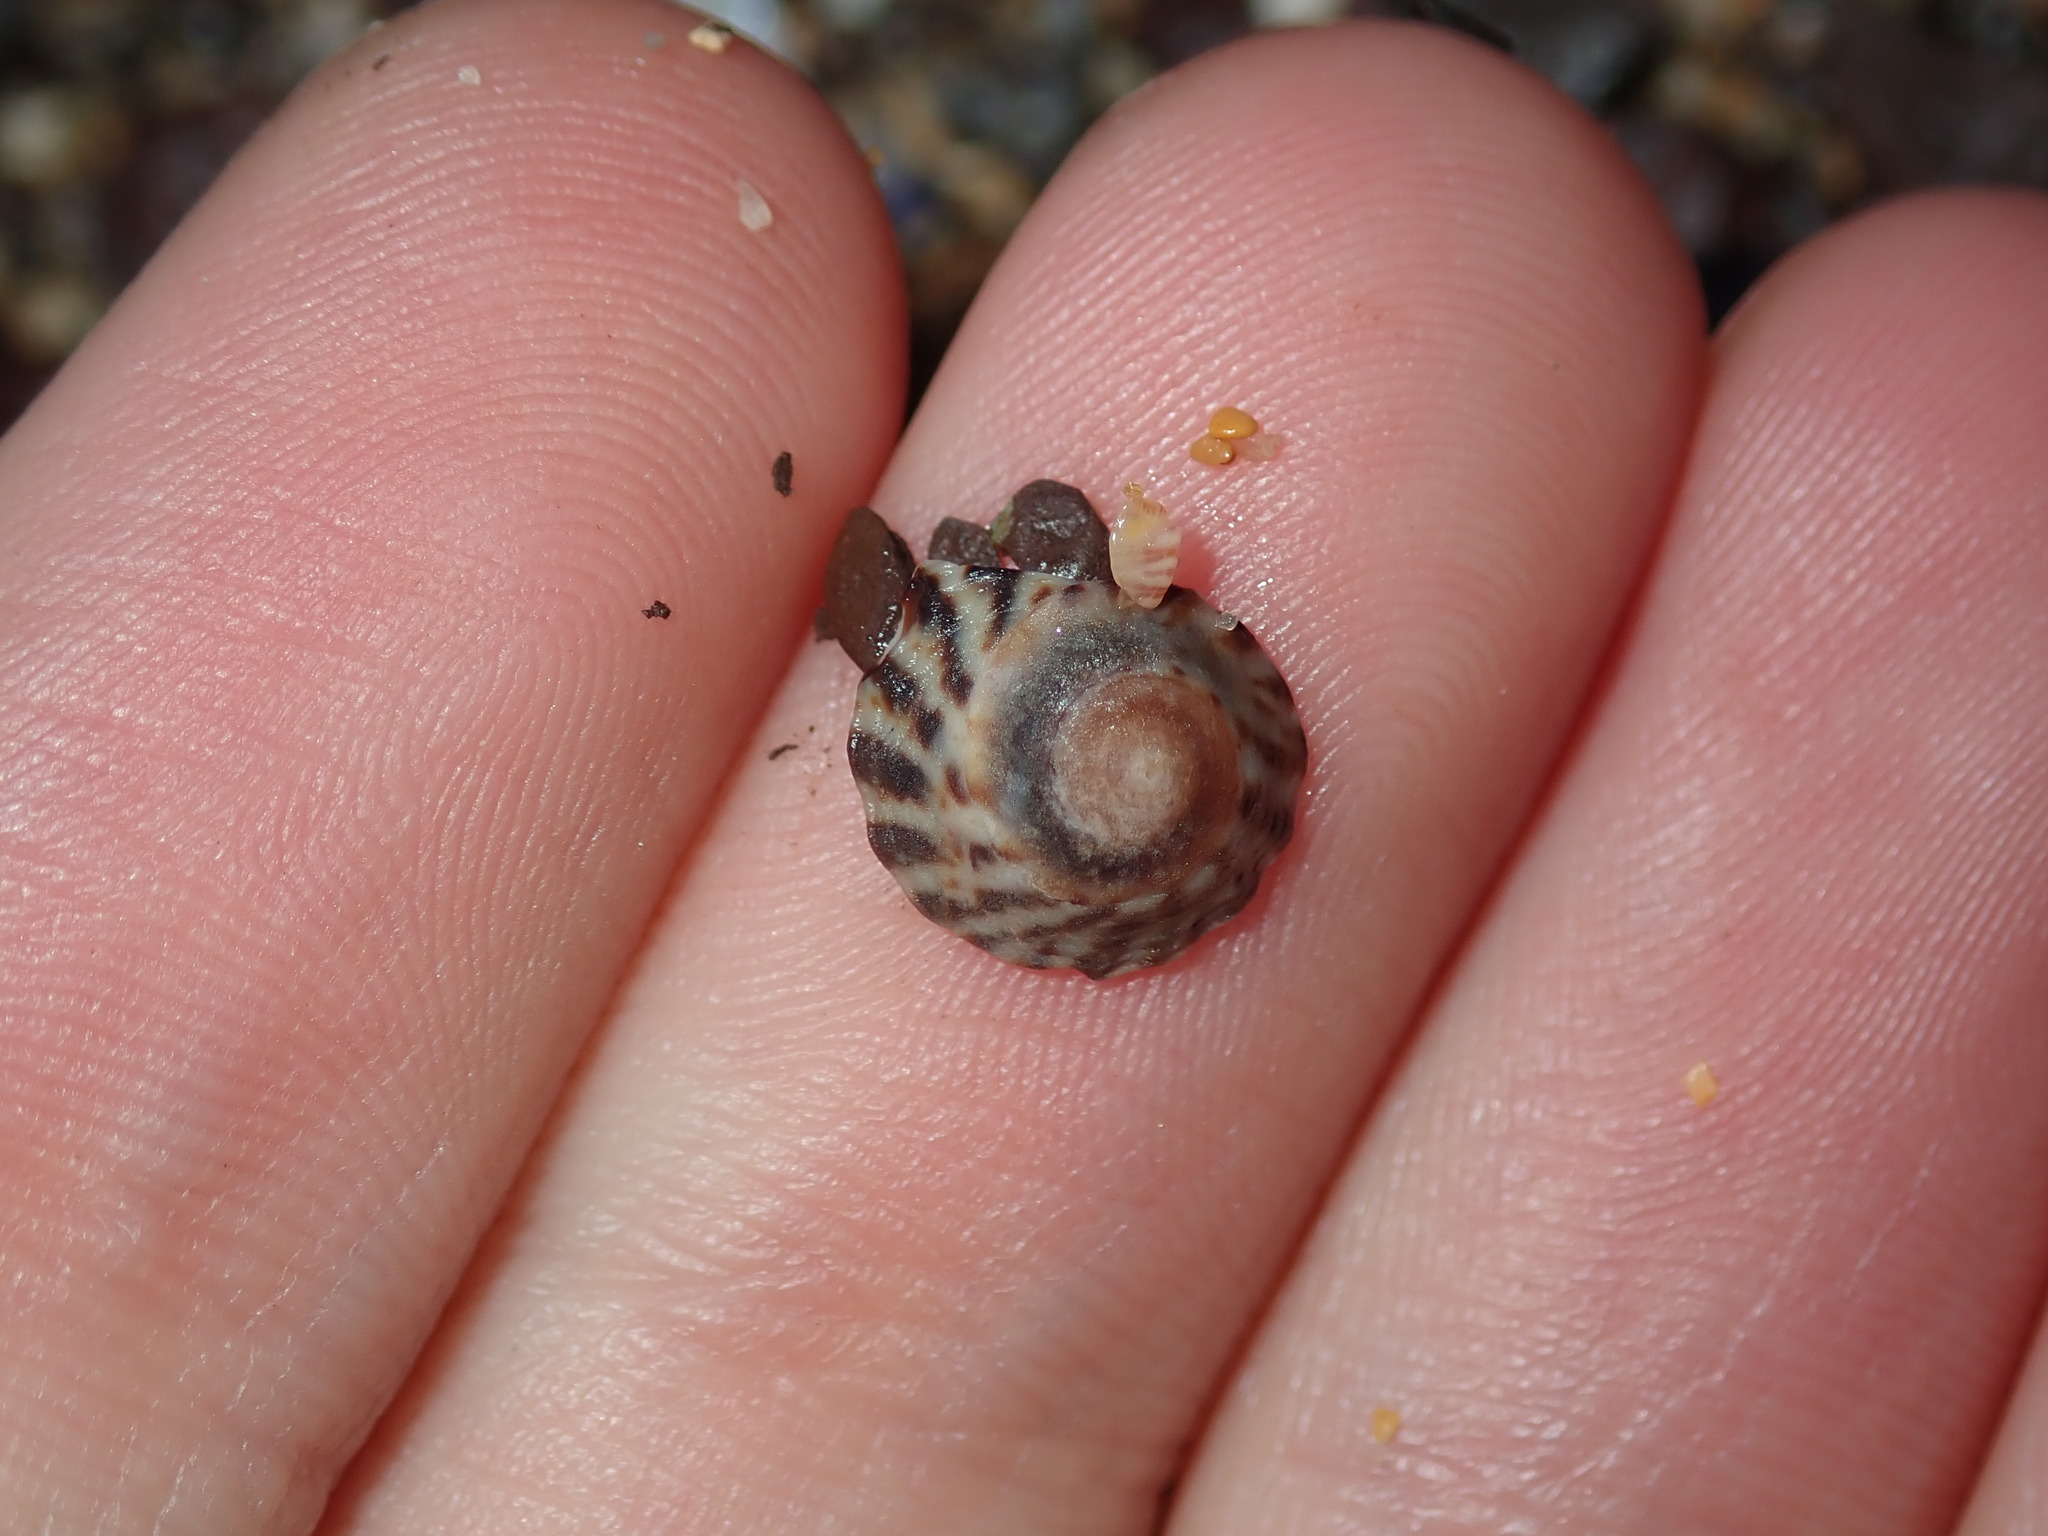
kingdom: Animalia
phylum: Mollusca
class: Gastropoda
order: Littorinimorpha
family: Littorinidae
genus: Bembicium
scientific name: Bembicium nanum
